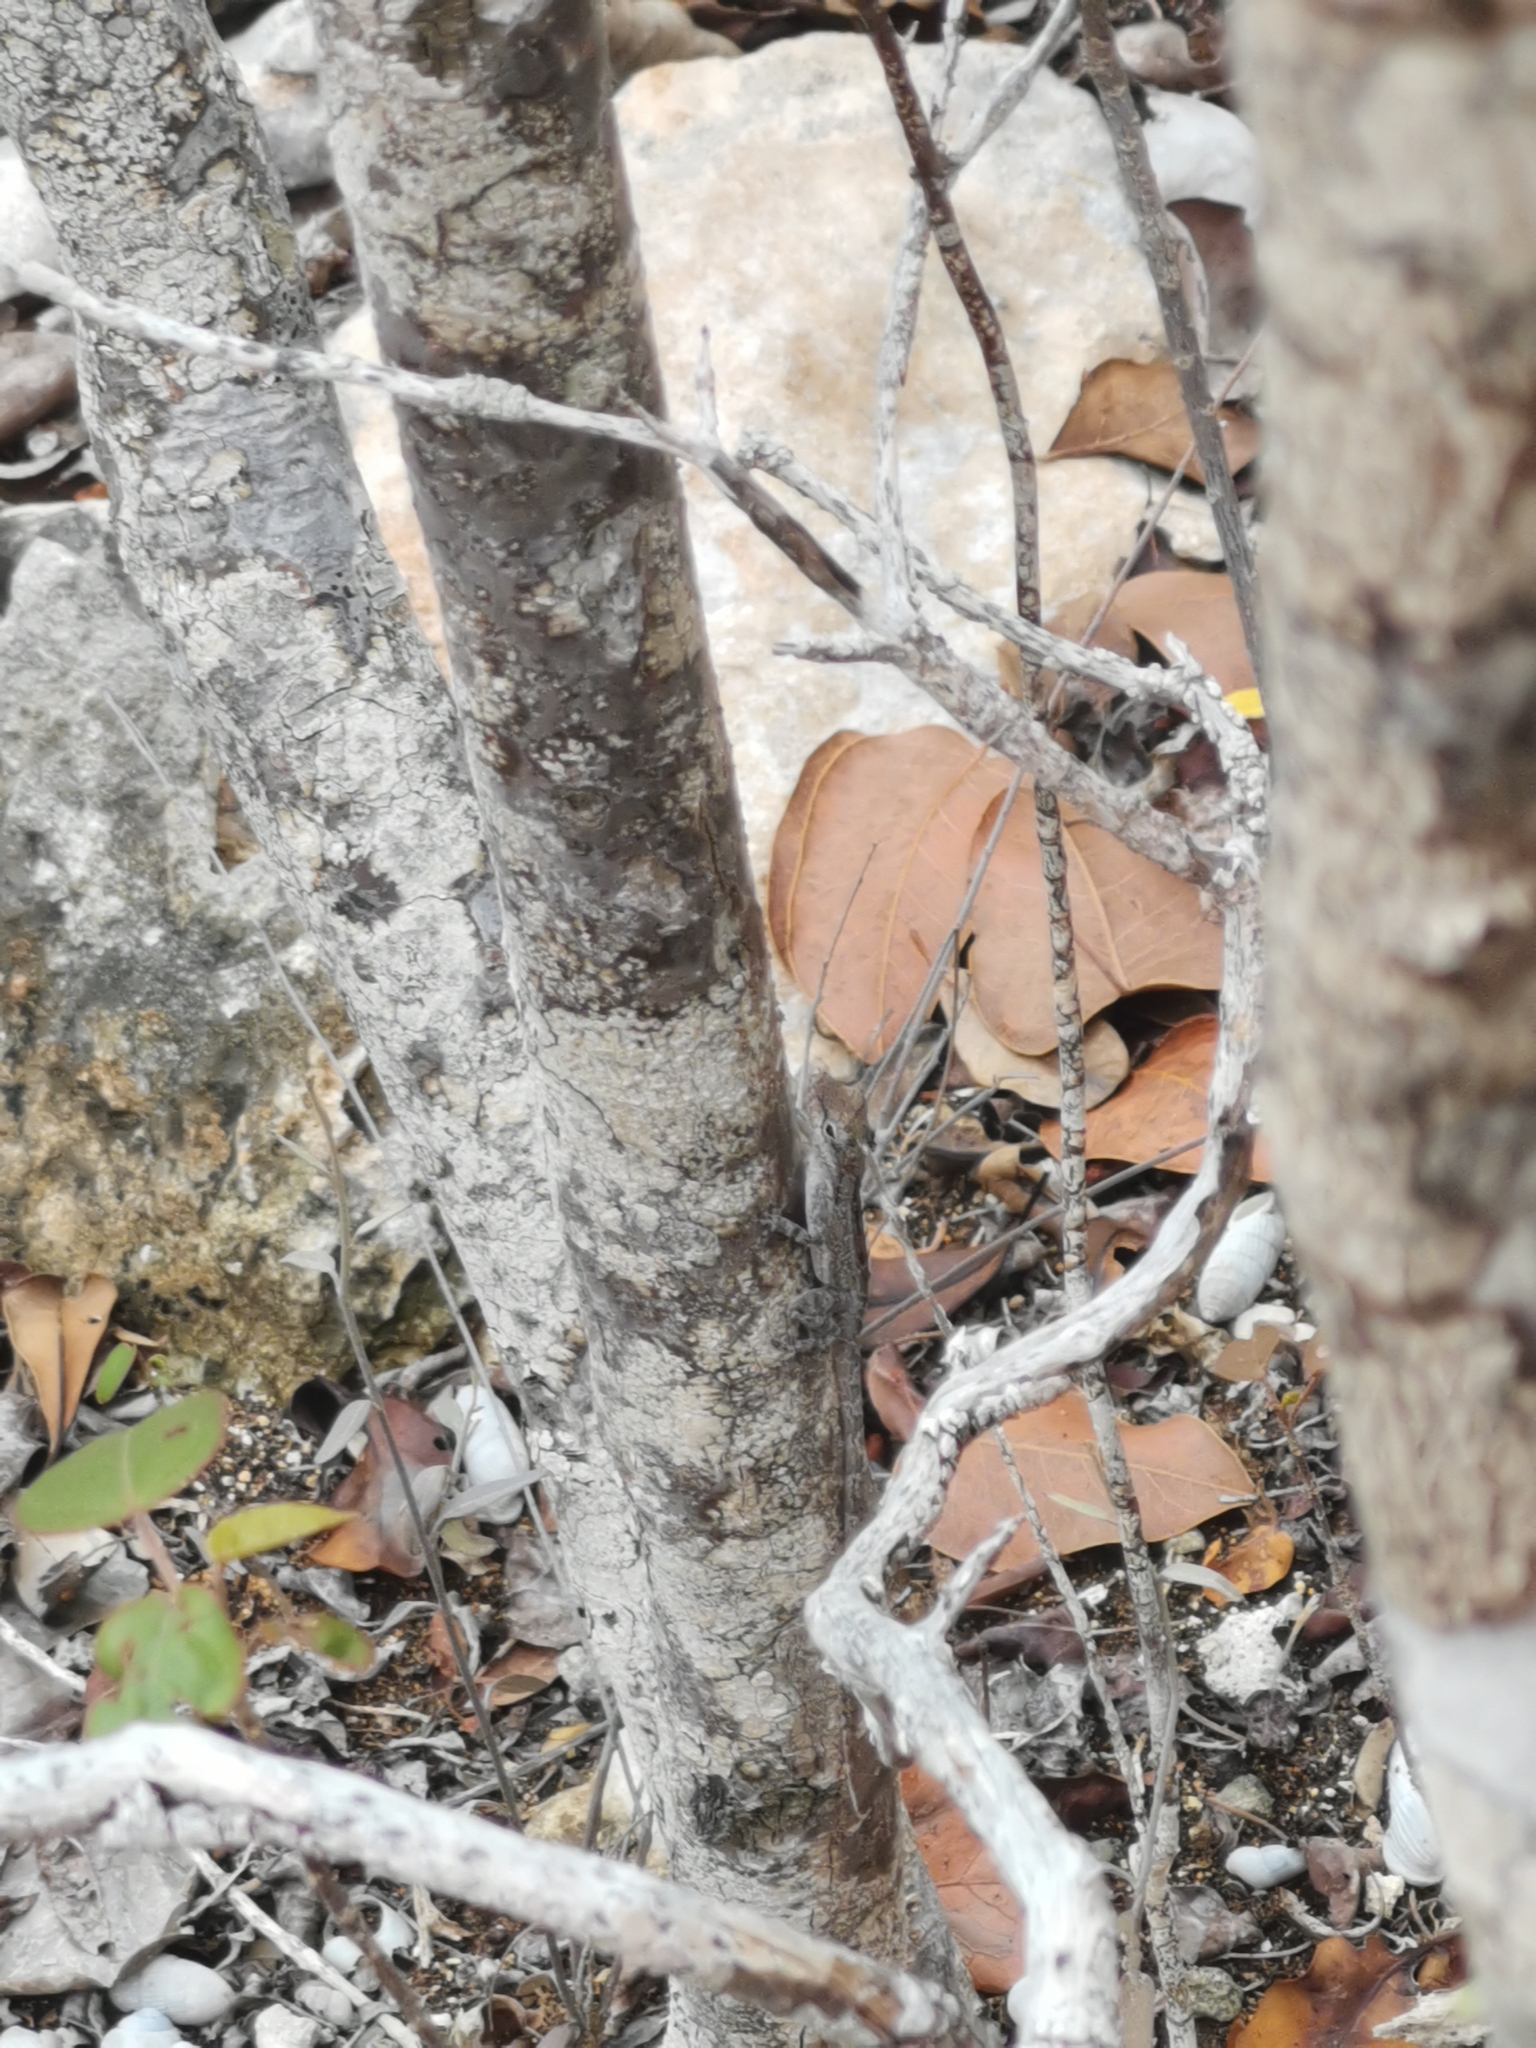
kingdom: Animalia
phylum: Chordata
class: Squamata
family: Dactyloidae
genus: Anolis
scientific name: Anolis scriptus
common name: Silver key anole
